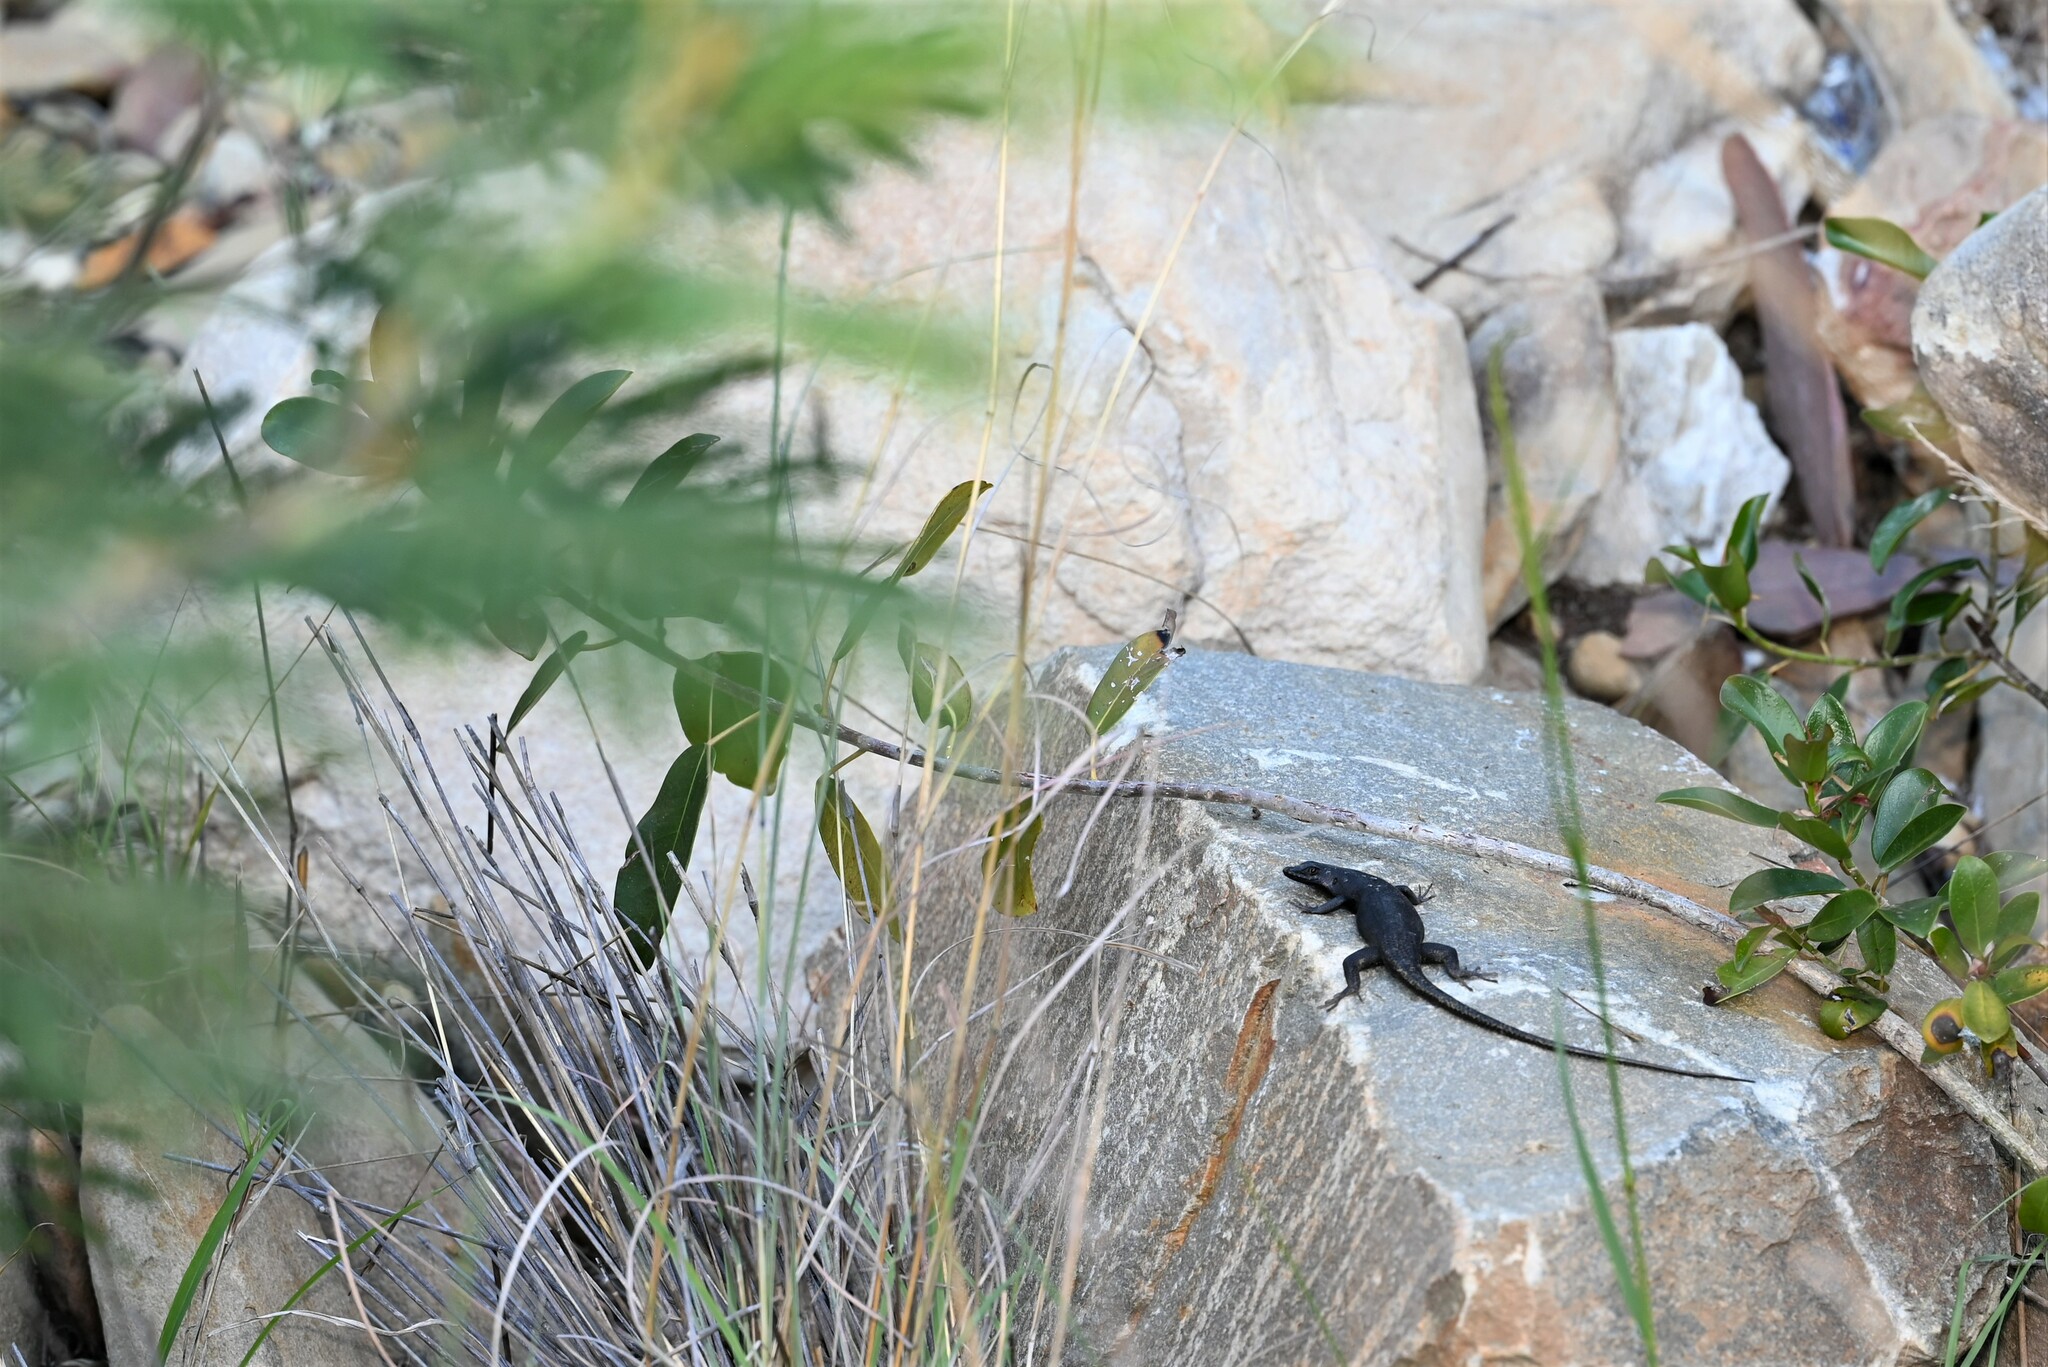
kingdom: Animalia
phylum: Chordata
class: Squamata
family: Scincidae
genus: Trachylepis
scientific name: Trachylepis sulcata
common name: Western rock skink
